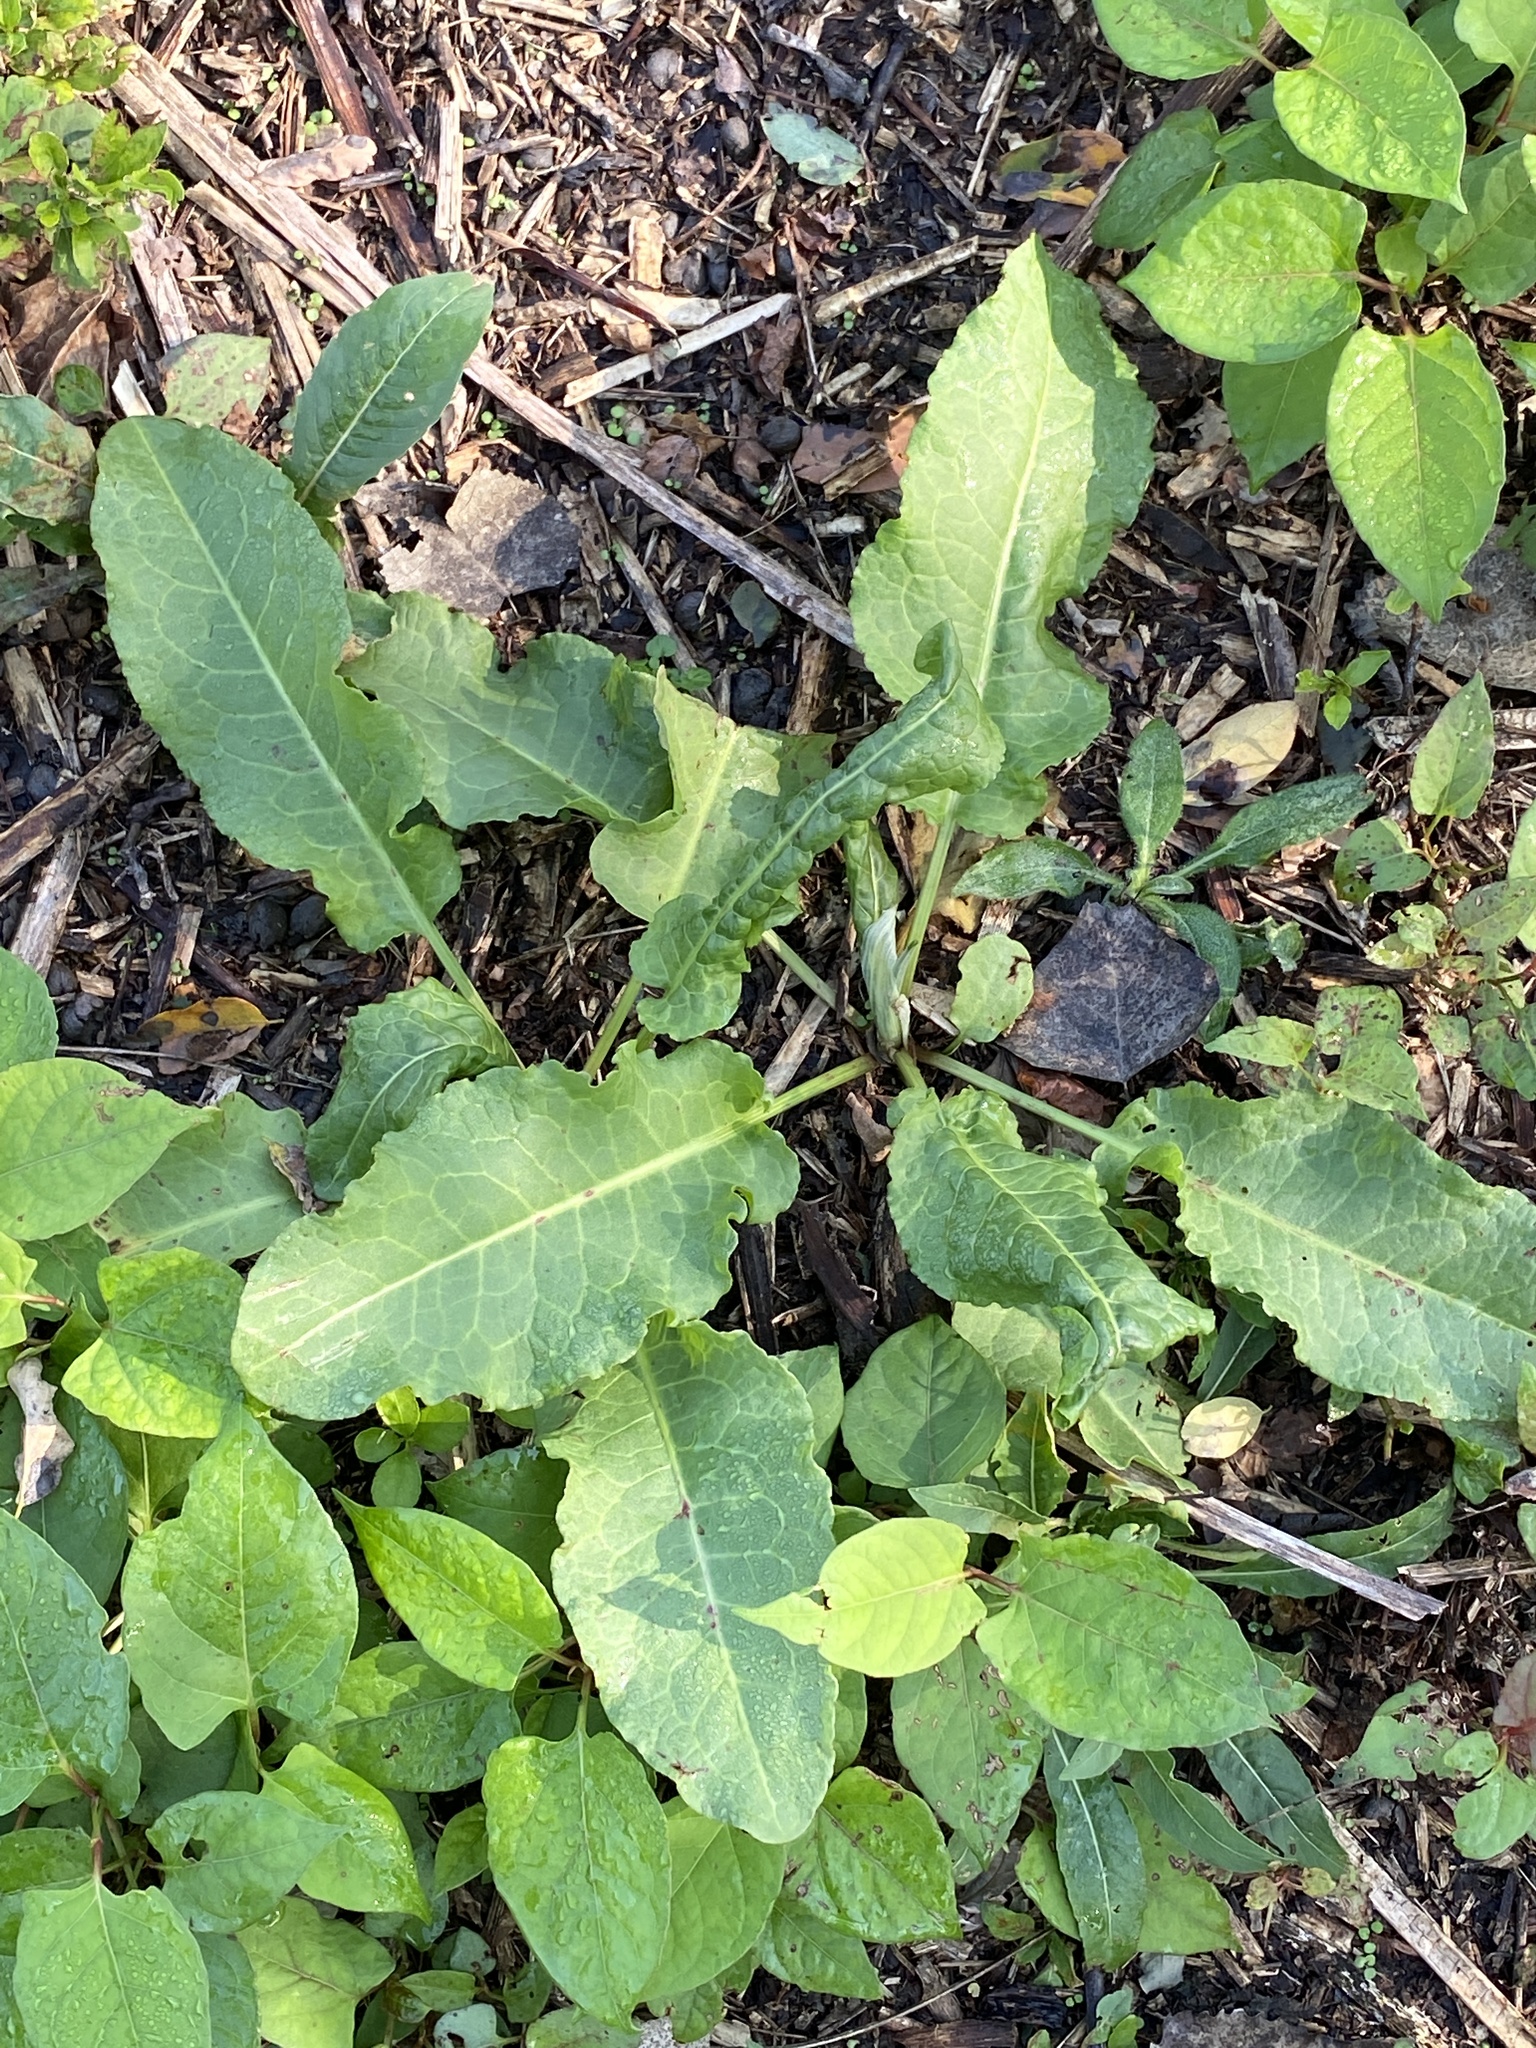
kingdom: Plantae
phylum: Tracheophyta
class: Magnoliopsida
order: Caryophyllales
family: Polygonaceae
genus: Rumex
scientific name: Rumex crispus
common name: Curled dock
